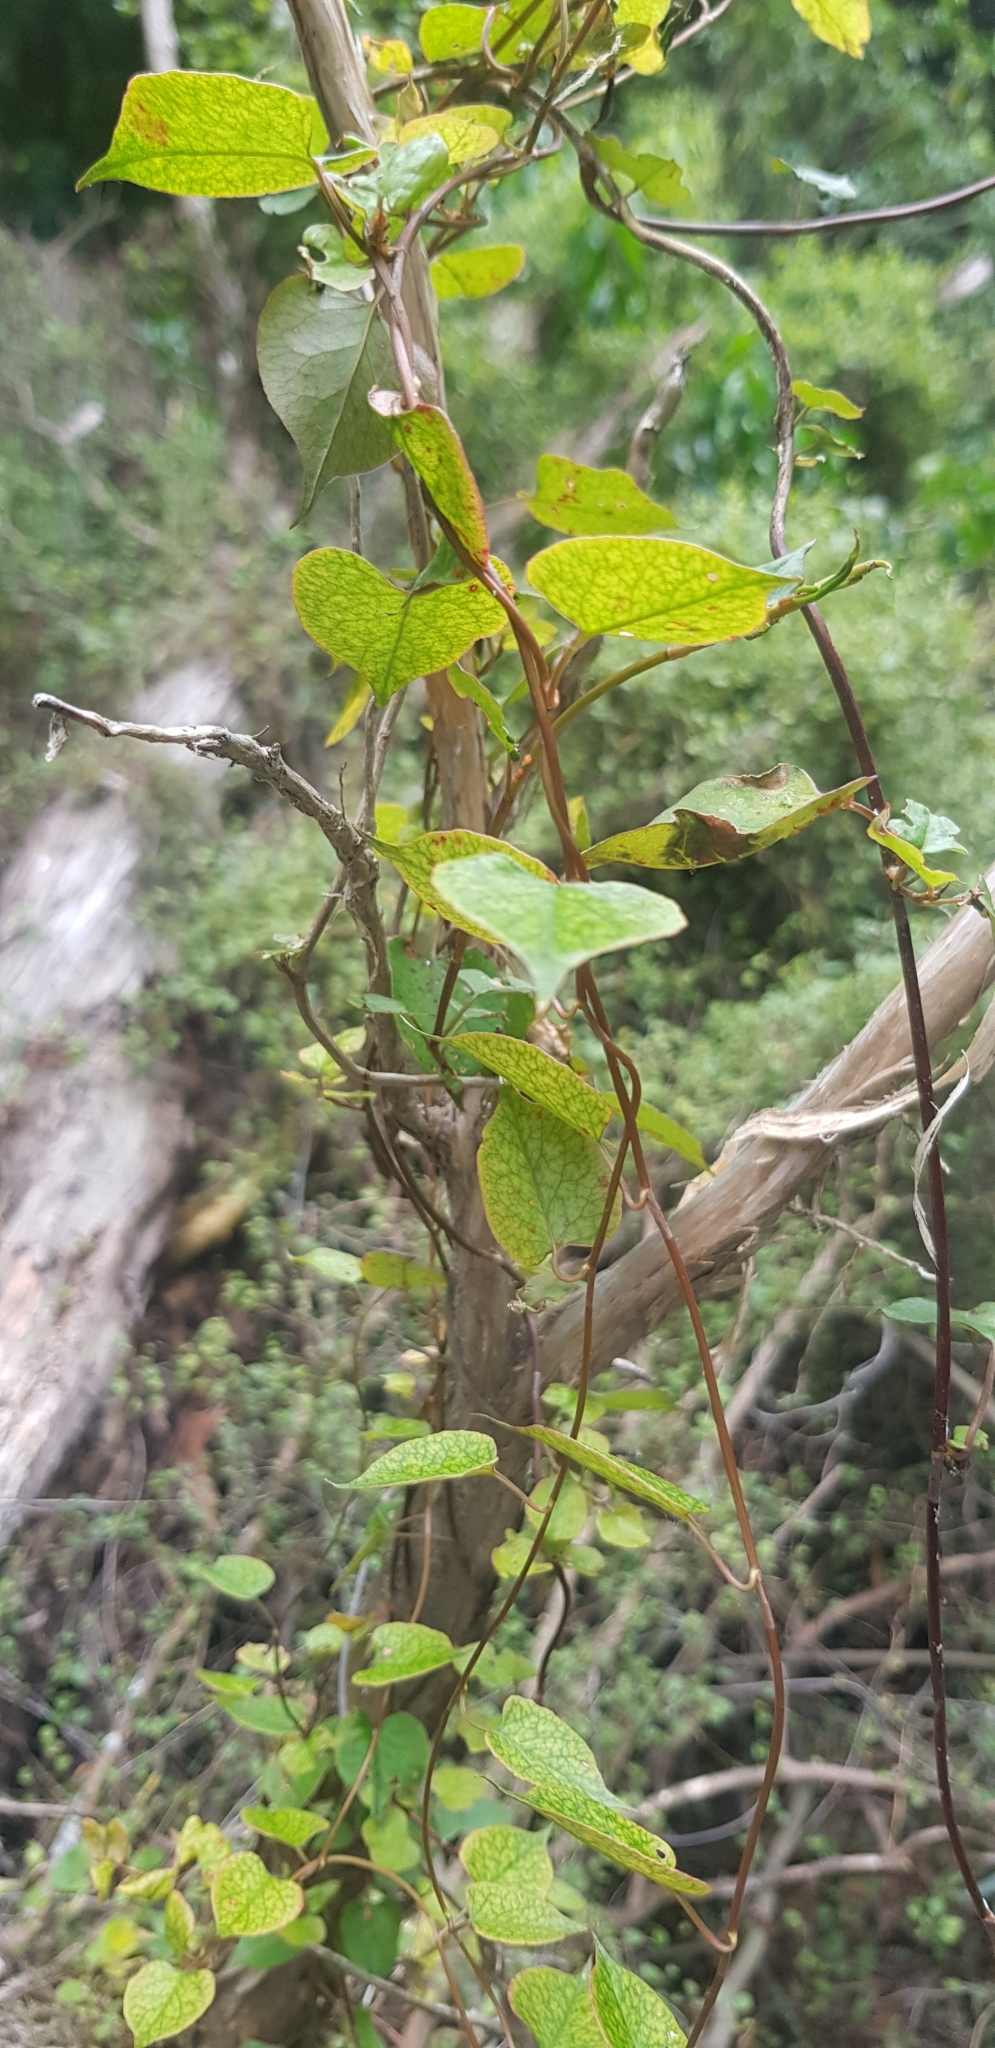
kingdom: Plantae
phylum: Tracheophyta
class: Magnoliopsida
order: Caryophyllales
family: Polygonaceae
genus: Muehlenbeckia
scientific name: Muehlenbeckia australis
